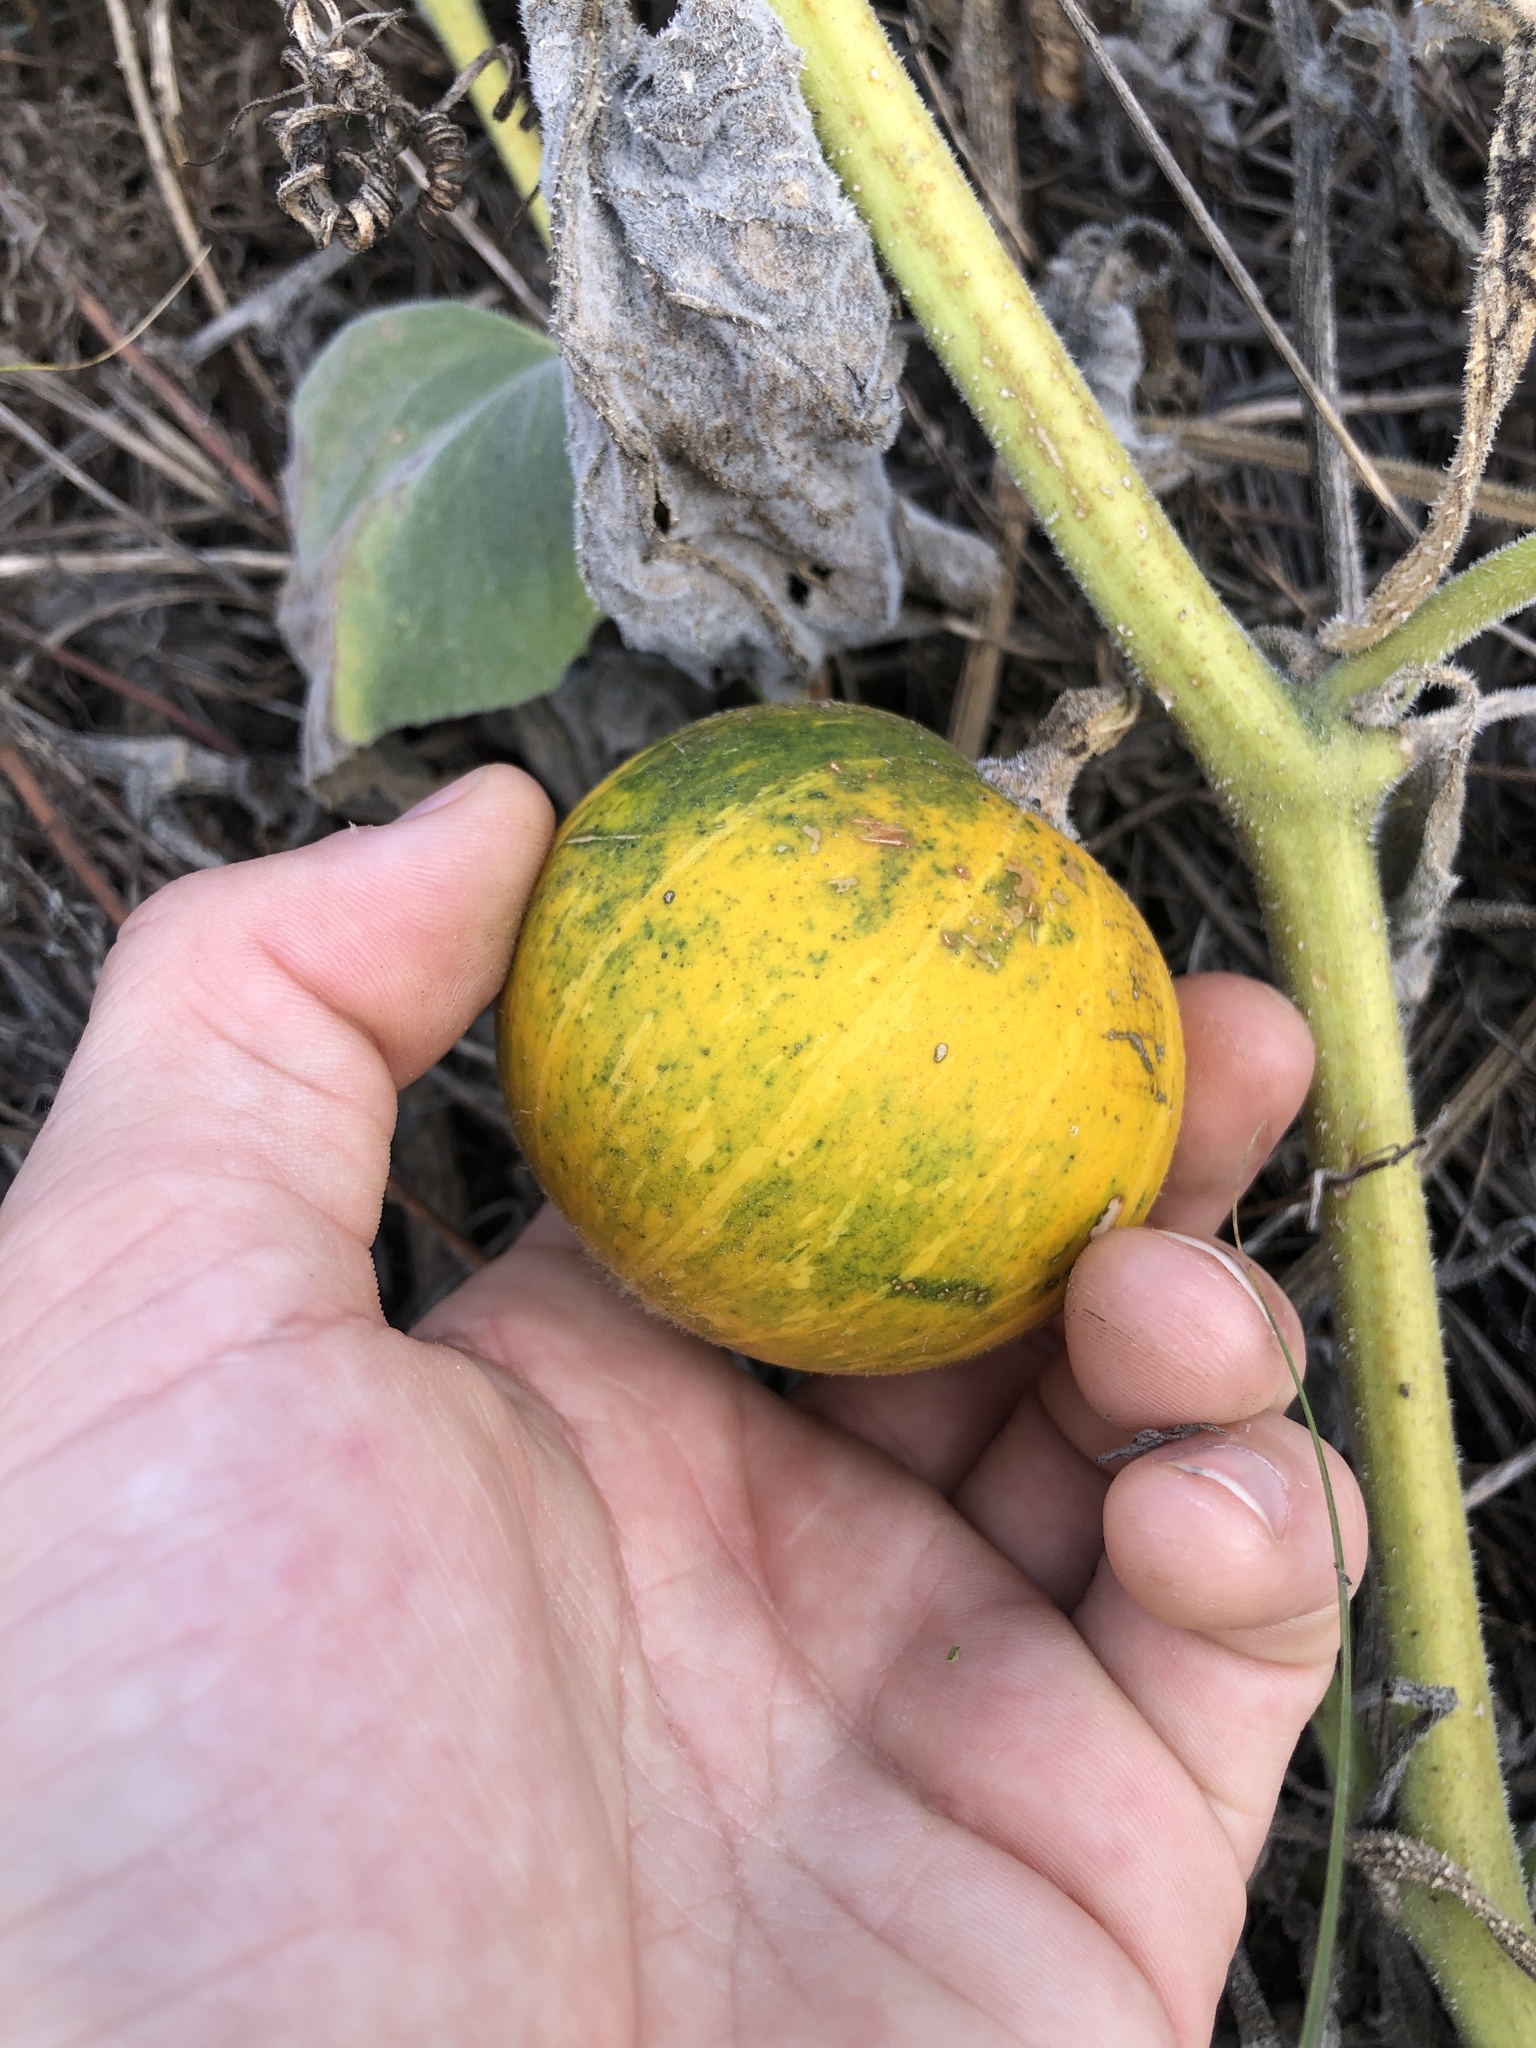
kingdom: Plantae
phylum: Tracheophyta
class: Magnoliopsida
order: Cucurbitales
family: Cucurbitaceae
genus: Cucurbita
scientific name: Cucurbita foetidissima
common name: Buffalo gourd
